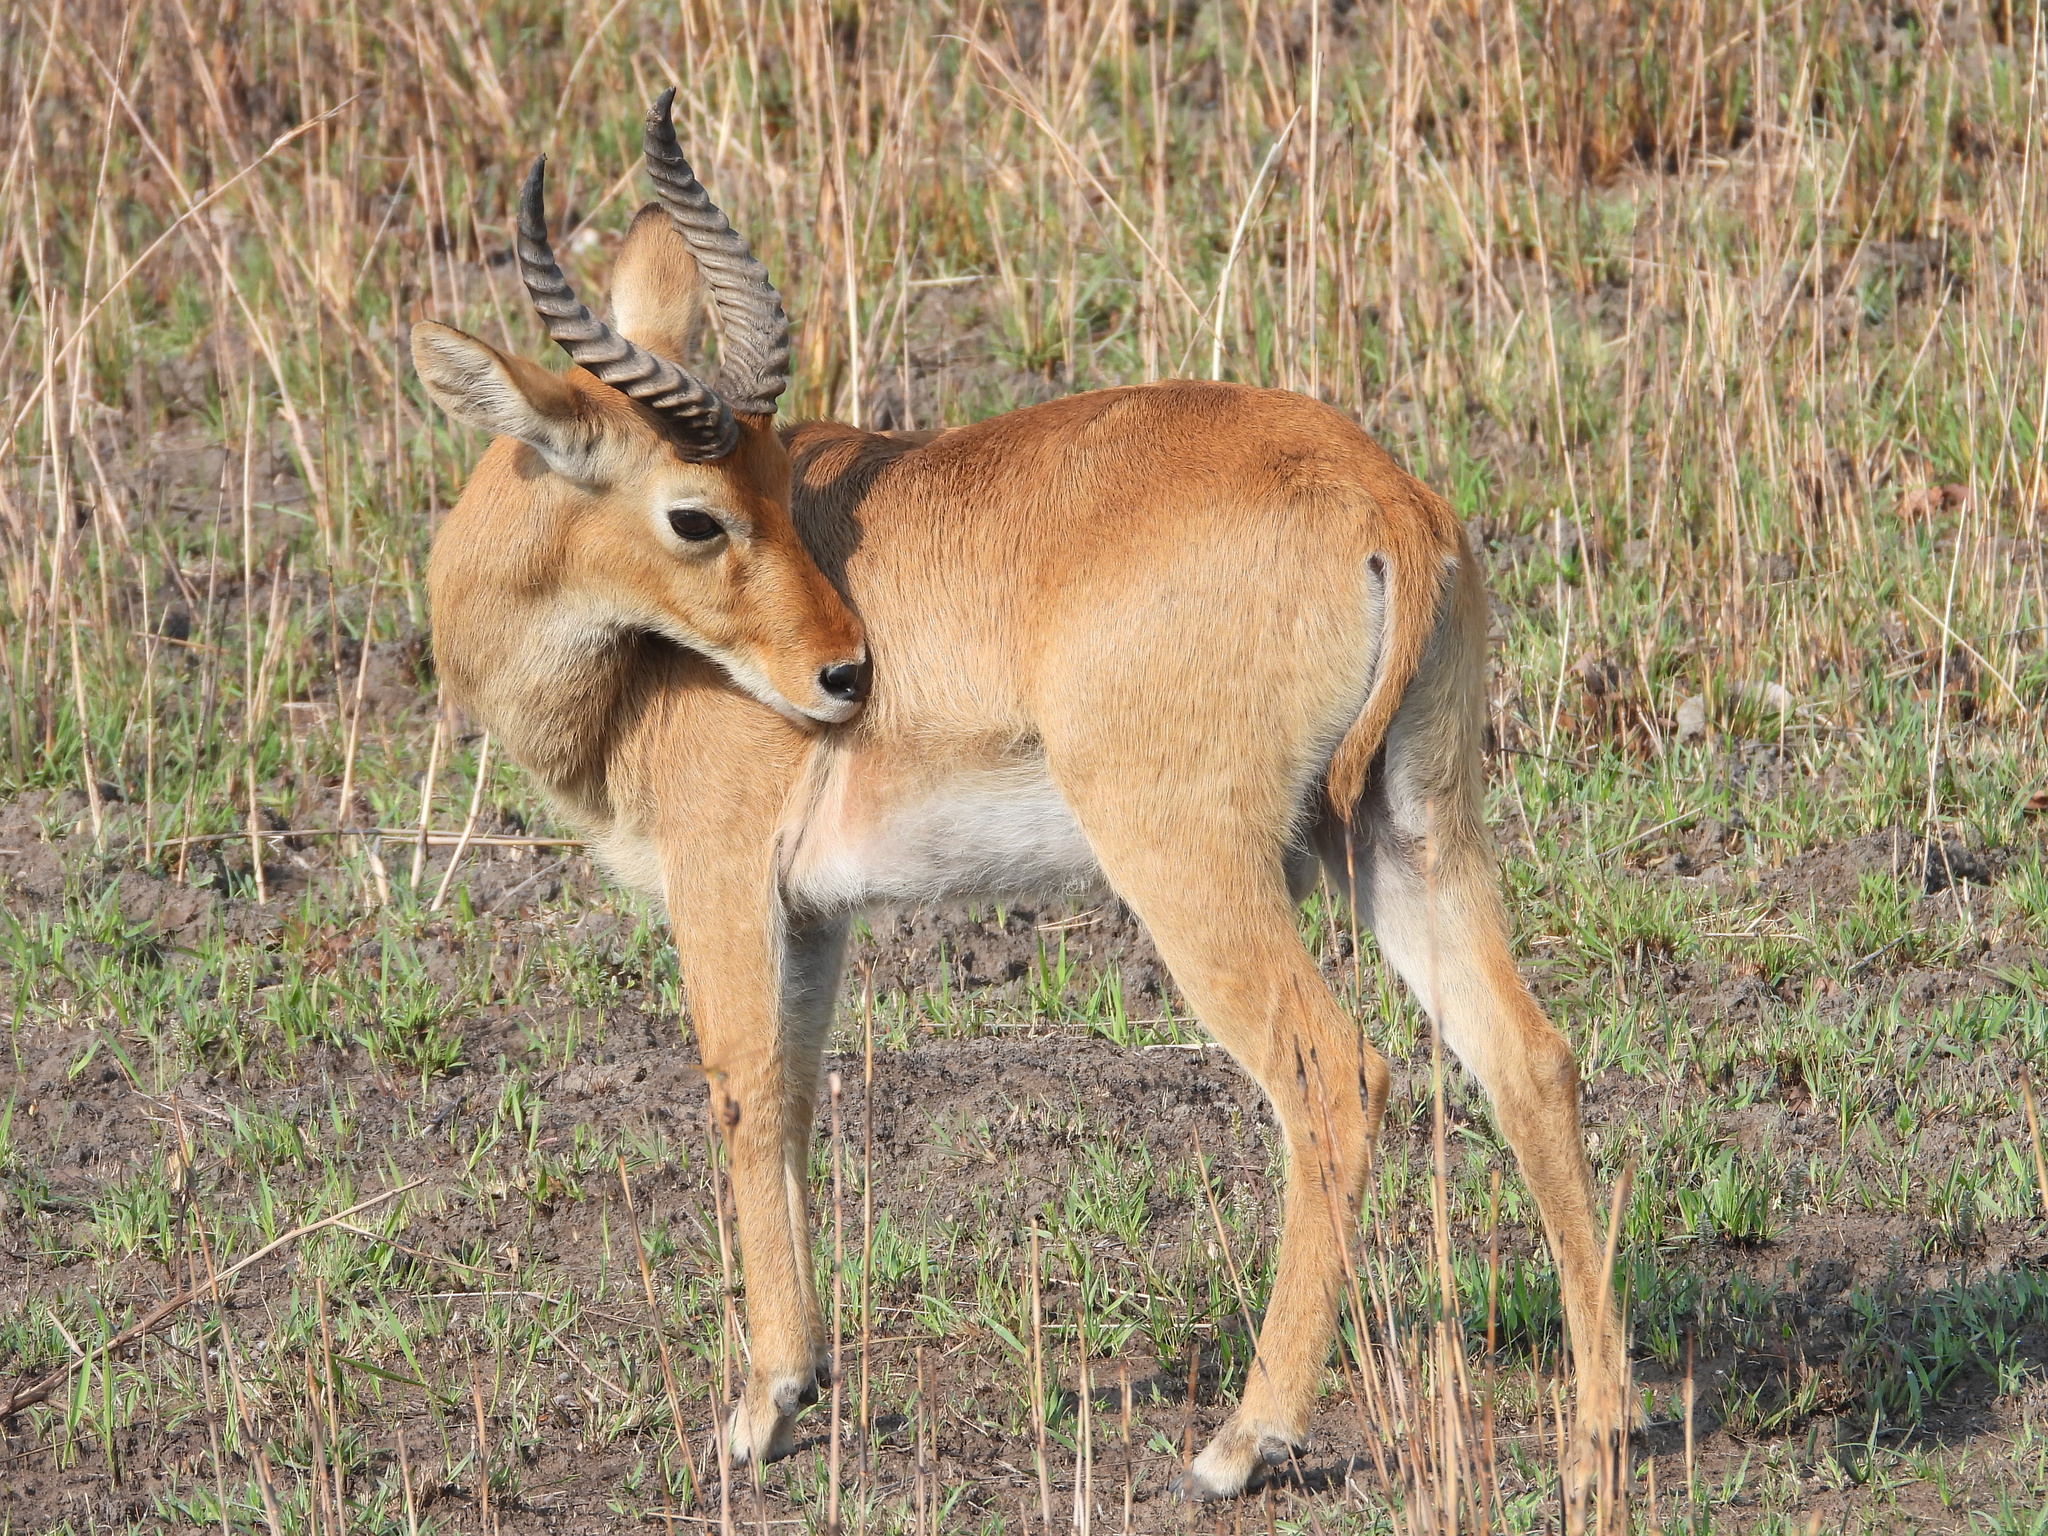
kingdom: Animalia
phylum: Chordata
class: Mammalia
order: Artiodactyla
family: Bovidae
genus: Kobus
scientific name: Kobus vardonii
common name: Puku
